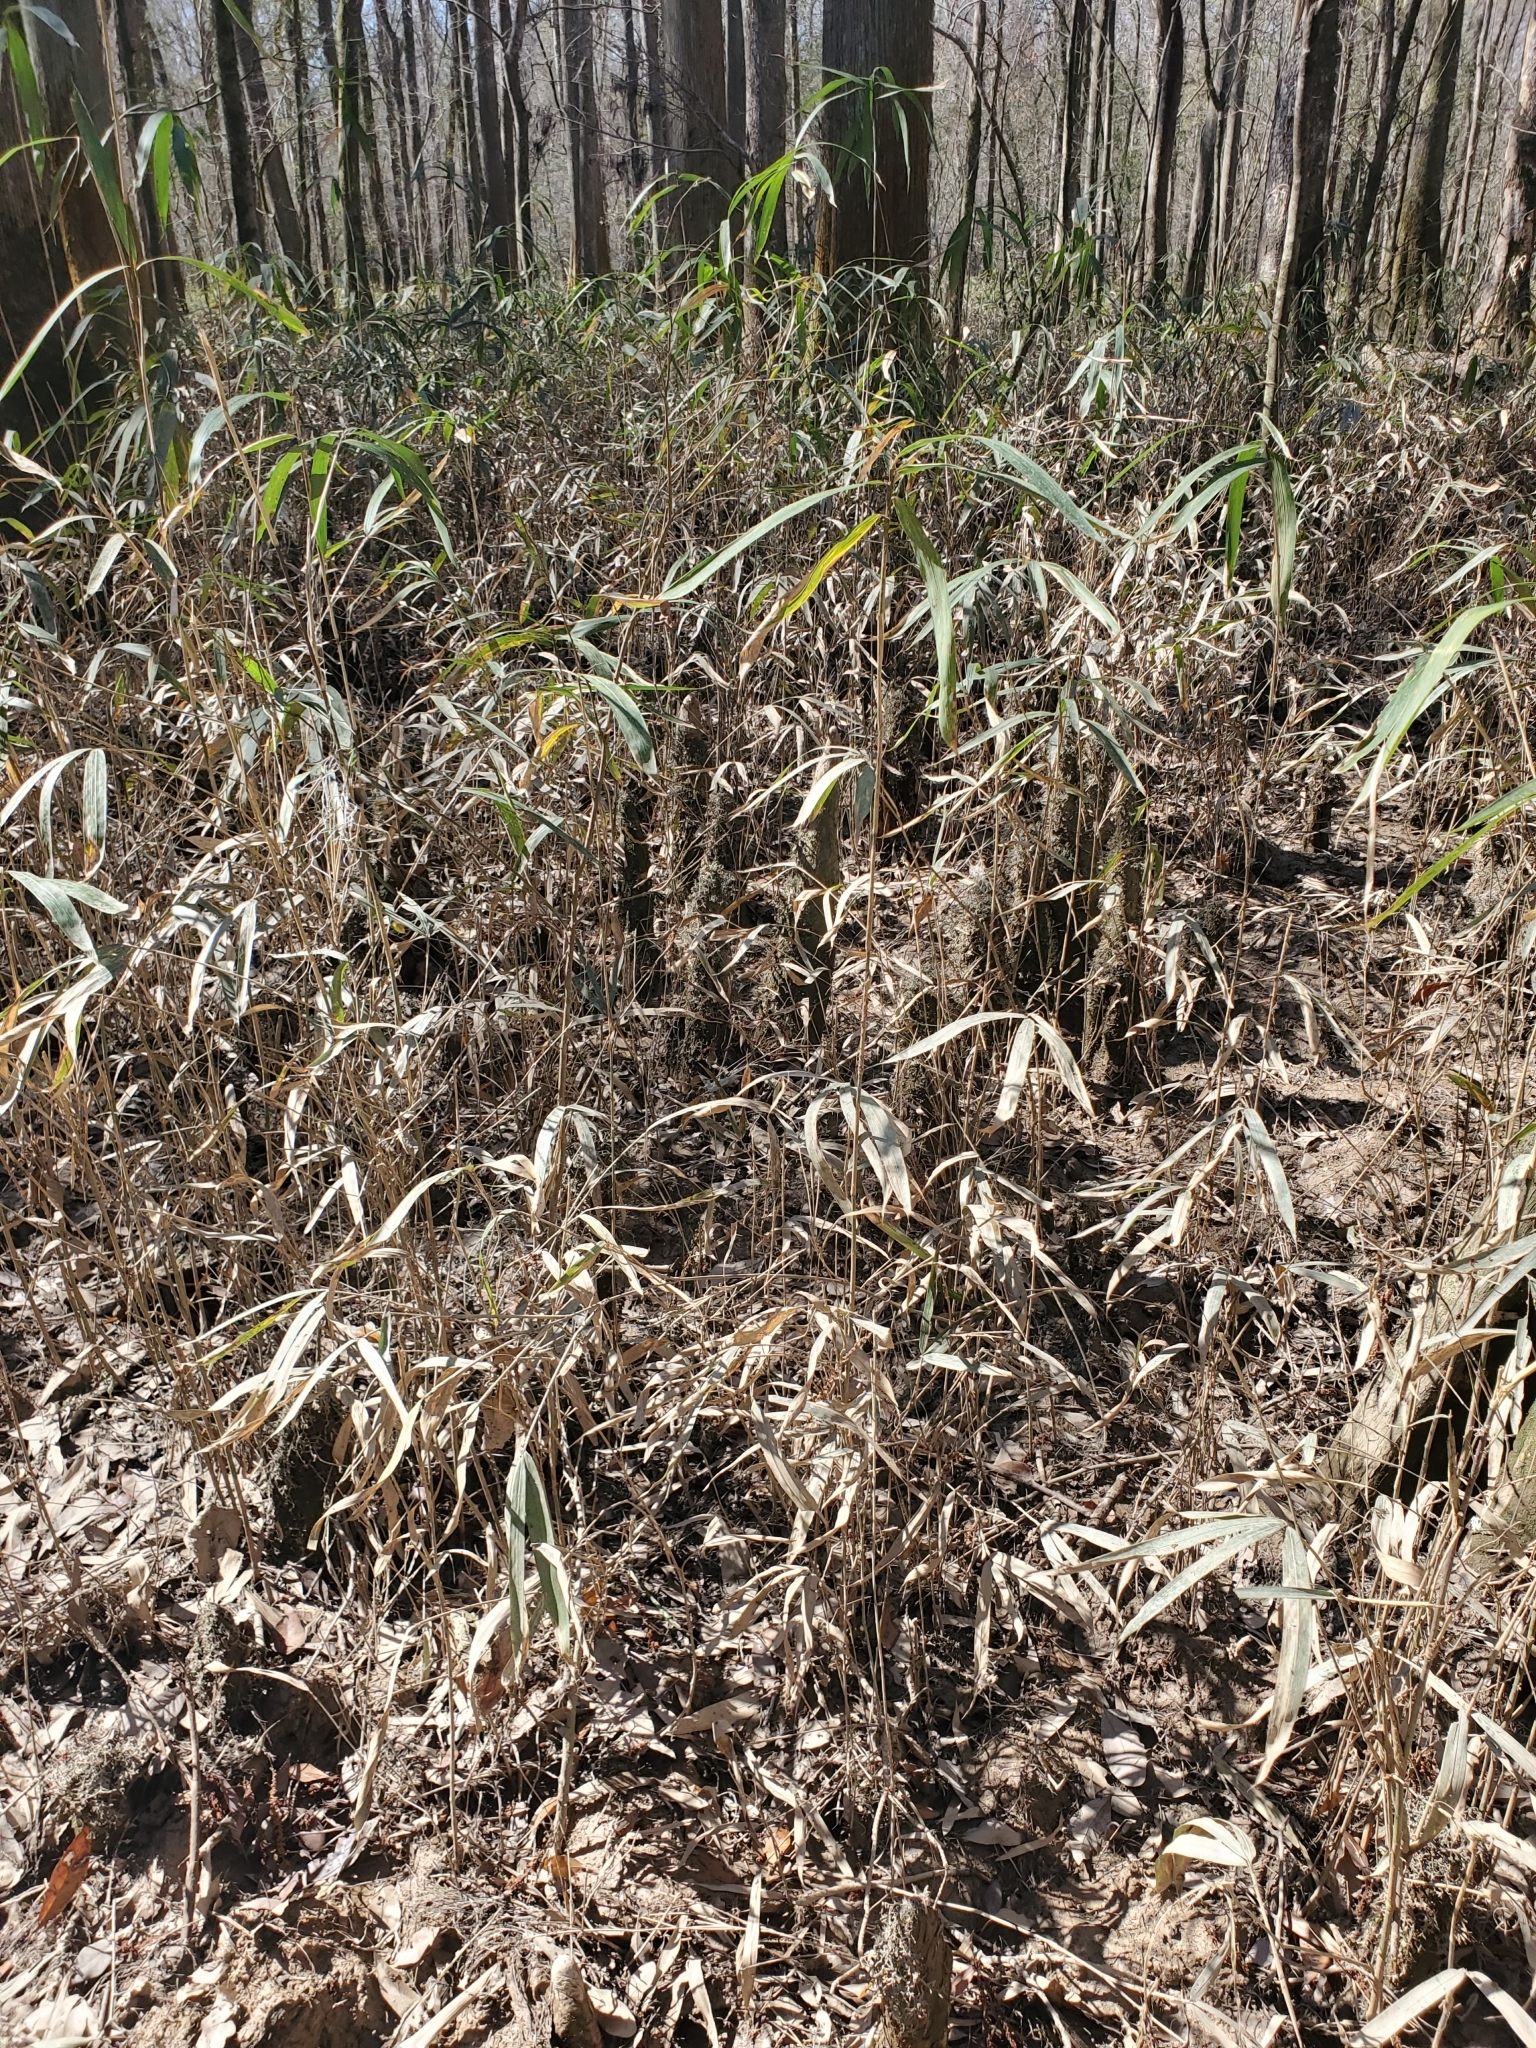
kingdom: Plantae
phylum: Tracheophyta
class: Liliopsida
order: Poales
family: Poaceae
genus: Arundinaria
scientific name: Arundinaria tecta
